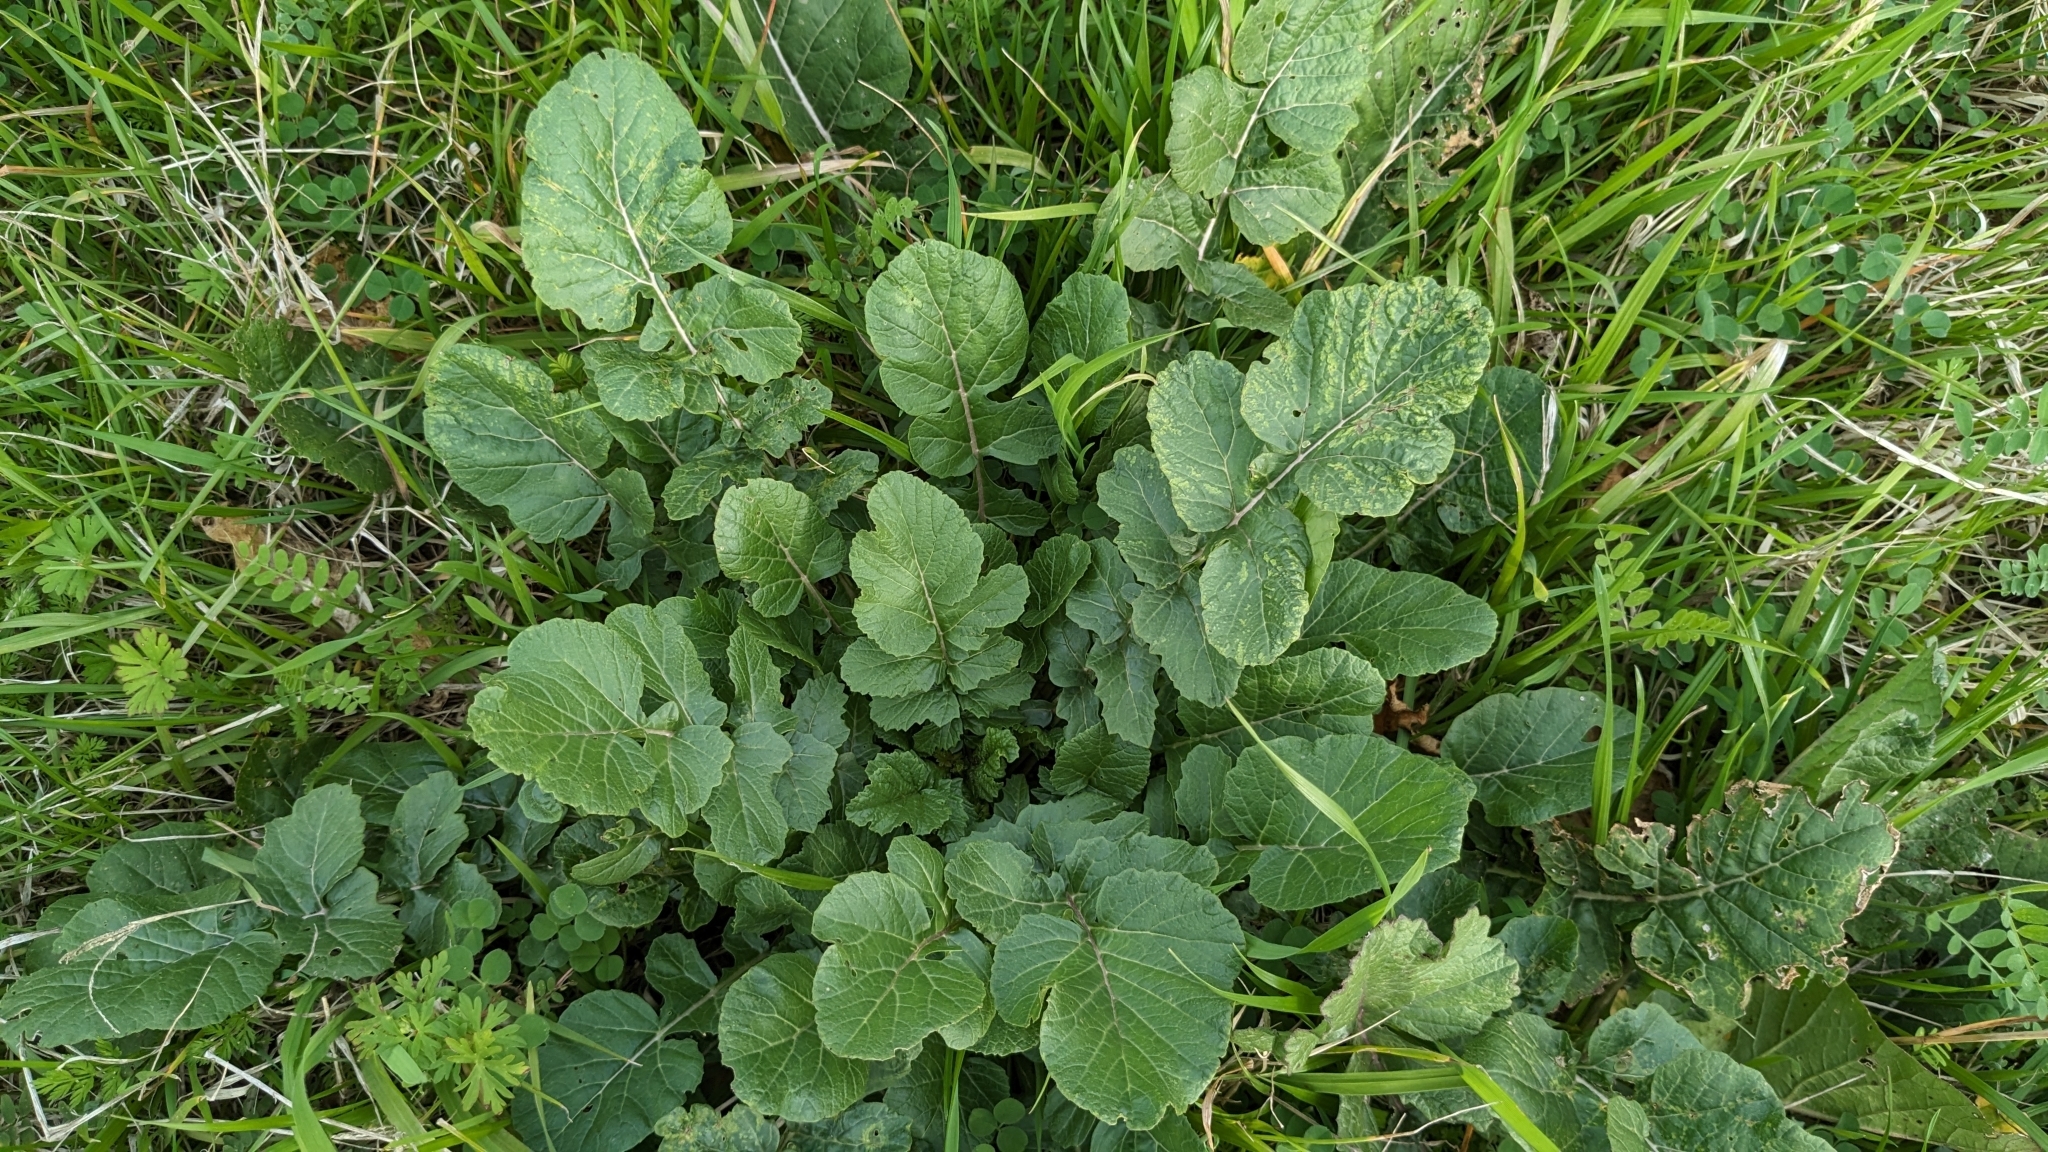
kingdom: Plantae
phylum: Tracheophyta
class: Magnoliopsida
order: Brassicales
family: Brassicaceae
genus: Rapistrum
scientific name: Rapistrum rugosum
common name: Annual bastardcabbage
